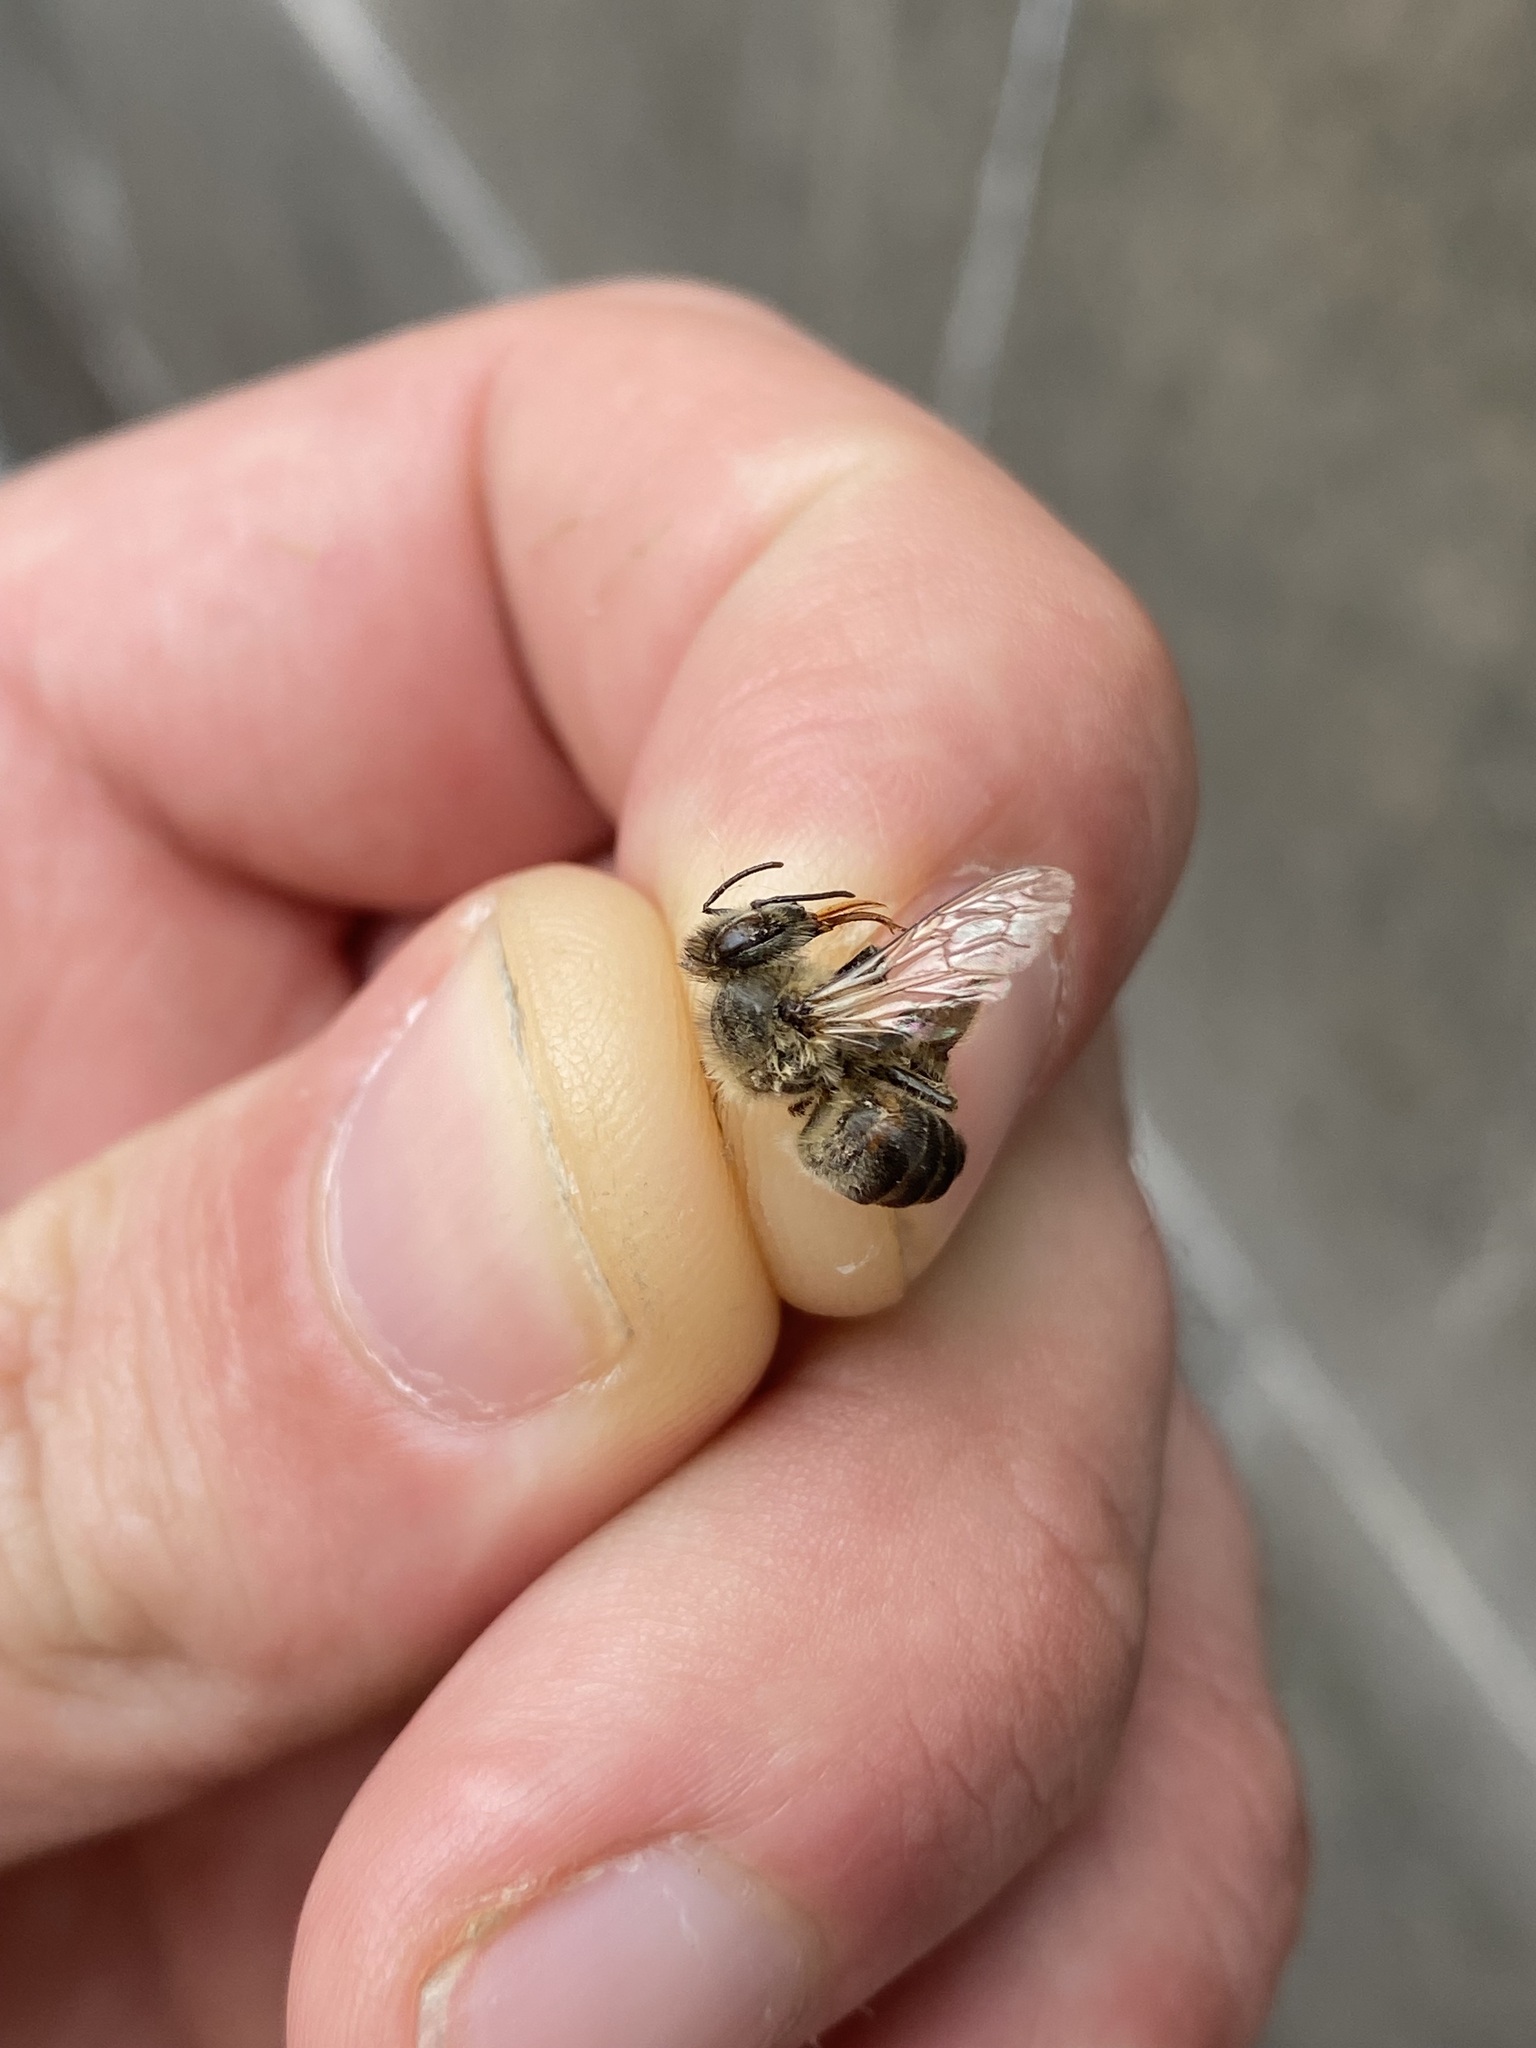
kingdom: Animalia
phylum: Arthropoda
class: Insecta
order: Hymenoptera
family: Apidae
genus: Apis
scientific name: Apis mellifera
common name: Honey bee
